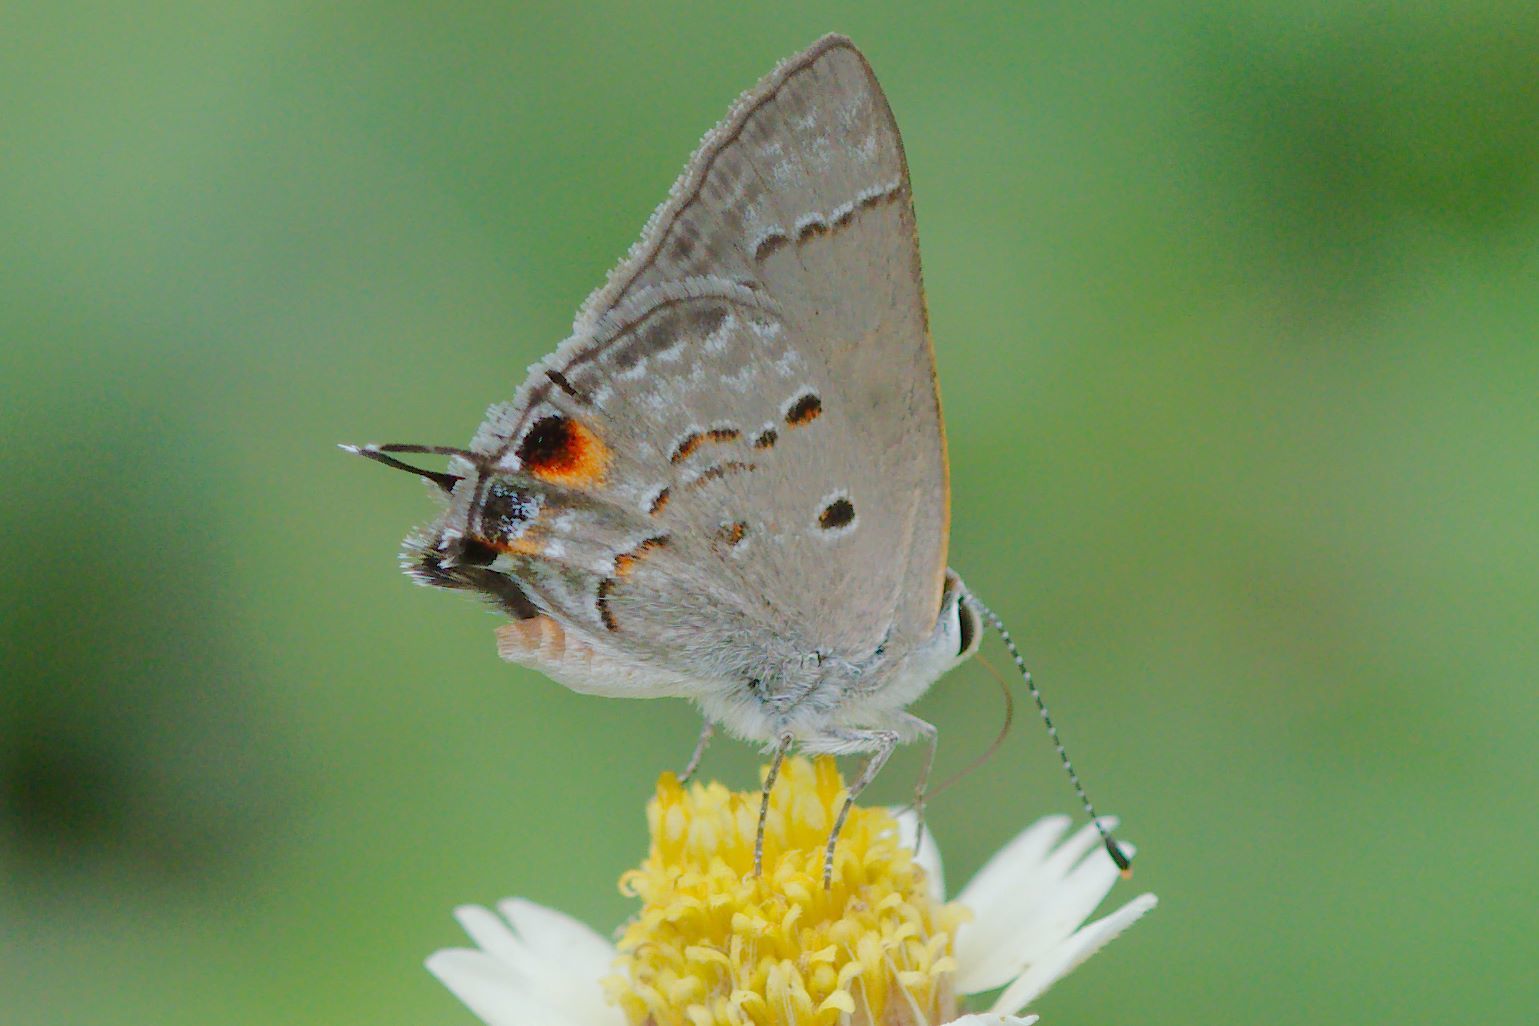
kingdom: Animalia
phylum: Arthropoda
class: Insecta
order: Lepidoptera
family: Lycaenidae
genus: Callicista
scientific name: Callicista columella
